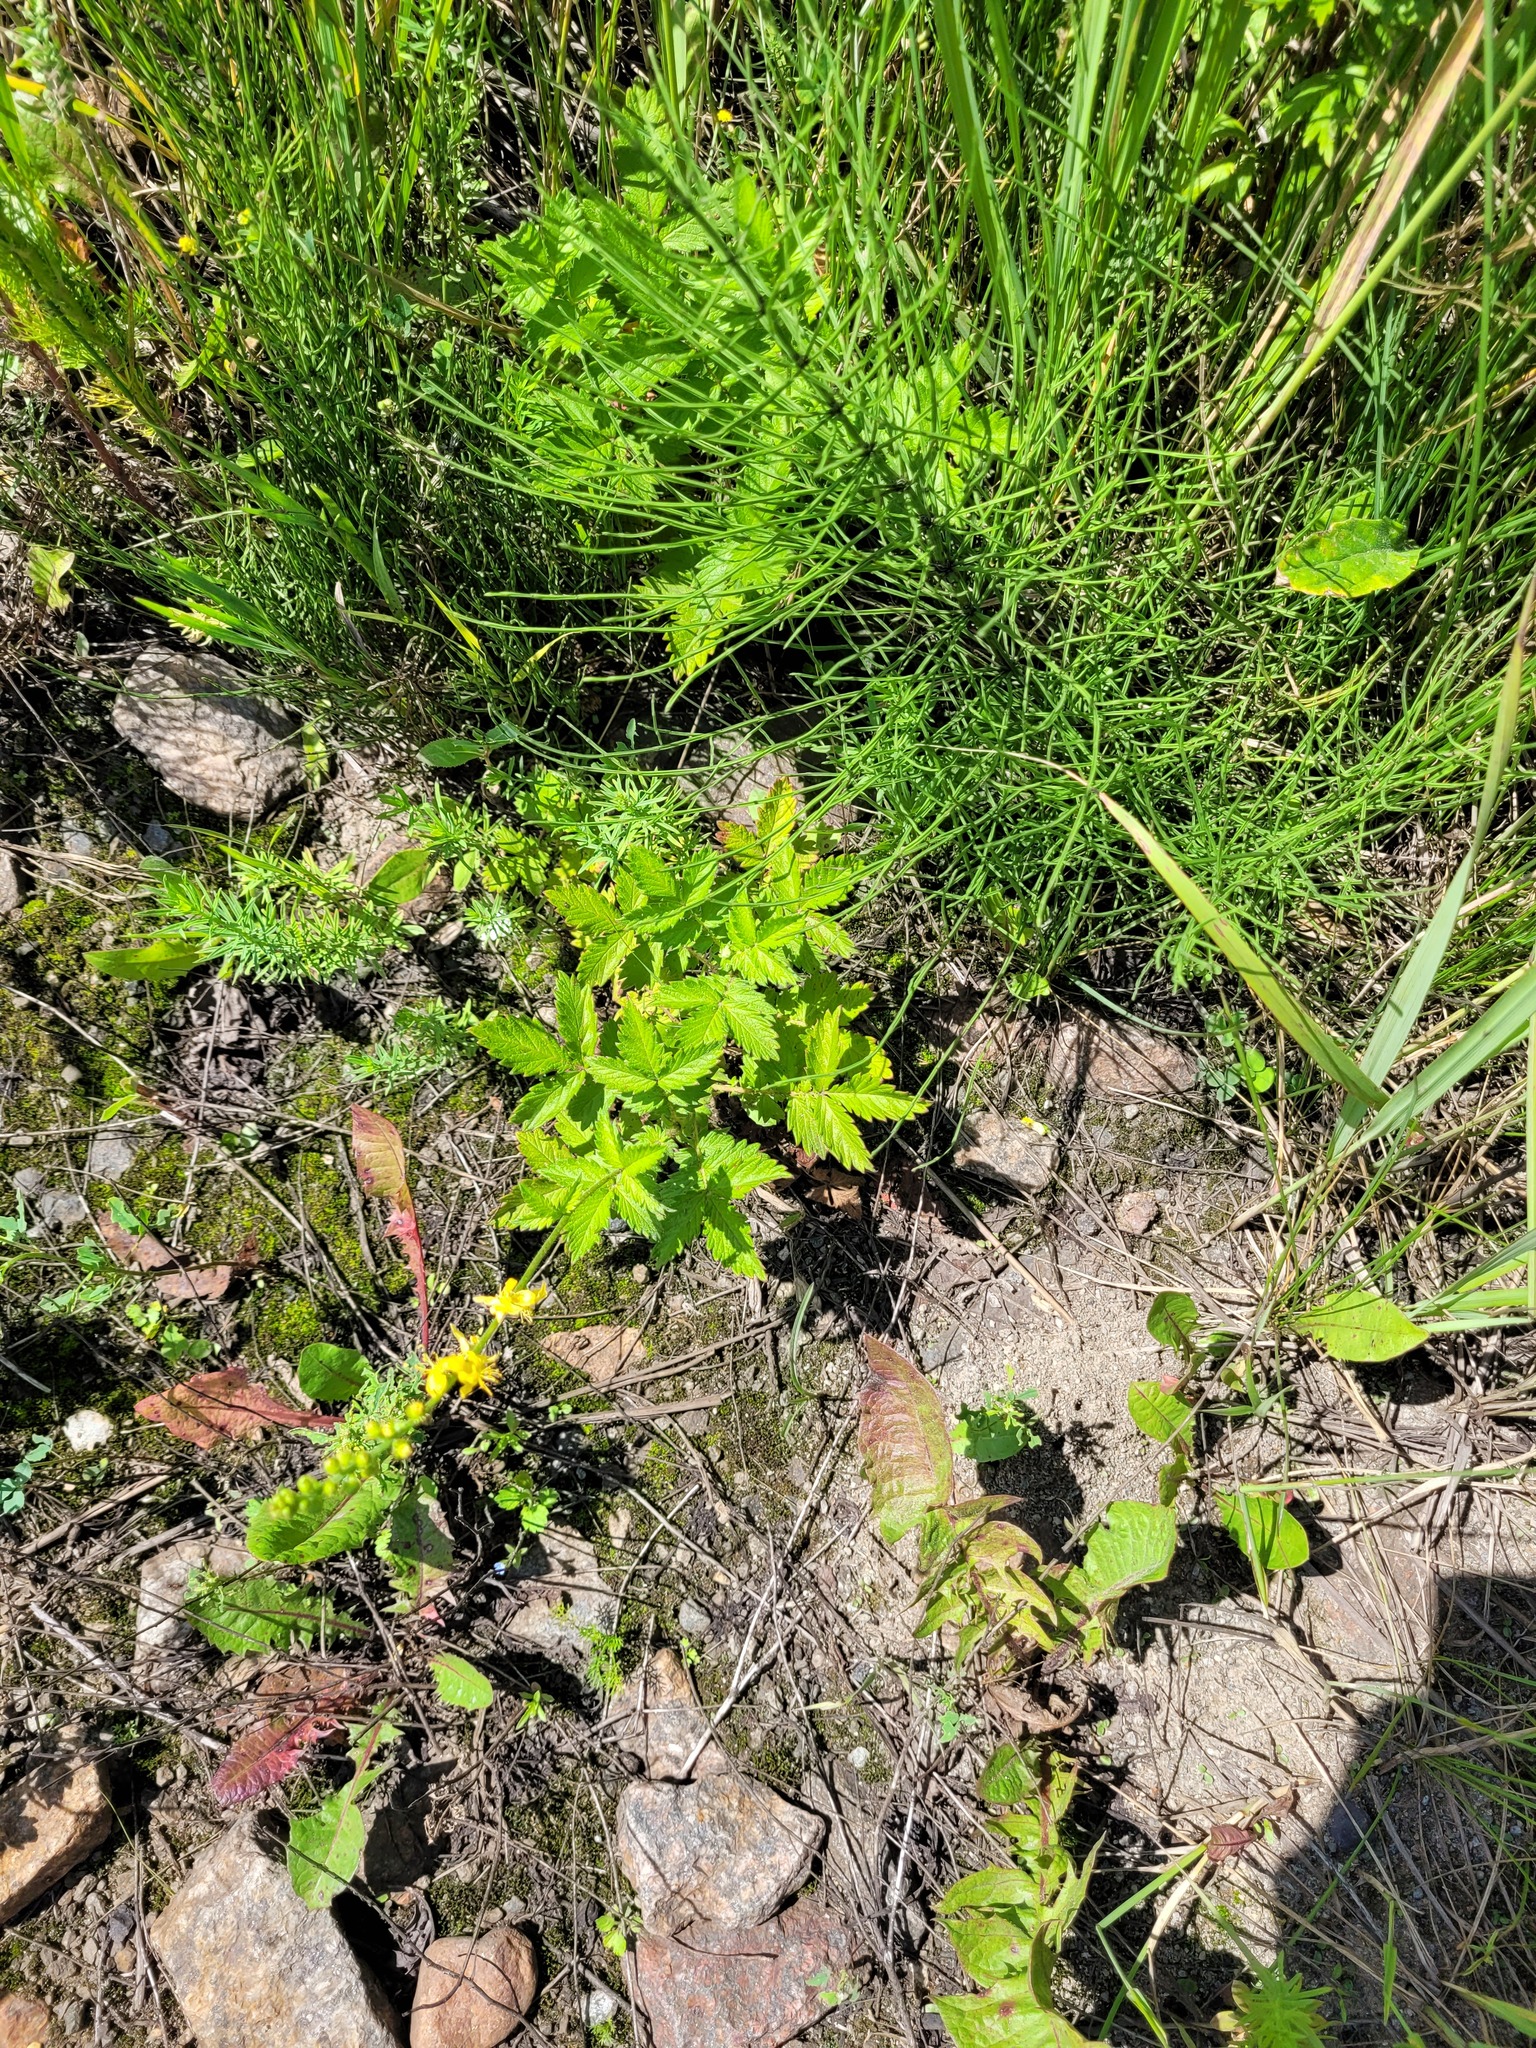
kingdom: Plantae
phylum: Tracheophyta
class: Magnoliopsida
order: Rosales
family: Rosaceae
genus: Agrimonia
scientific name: Agrimonia eupatoria
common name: Agrimony
